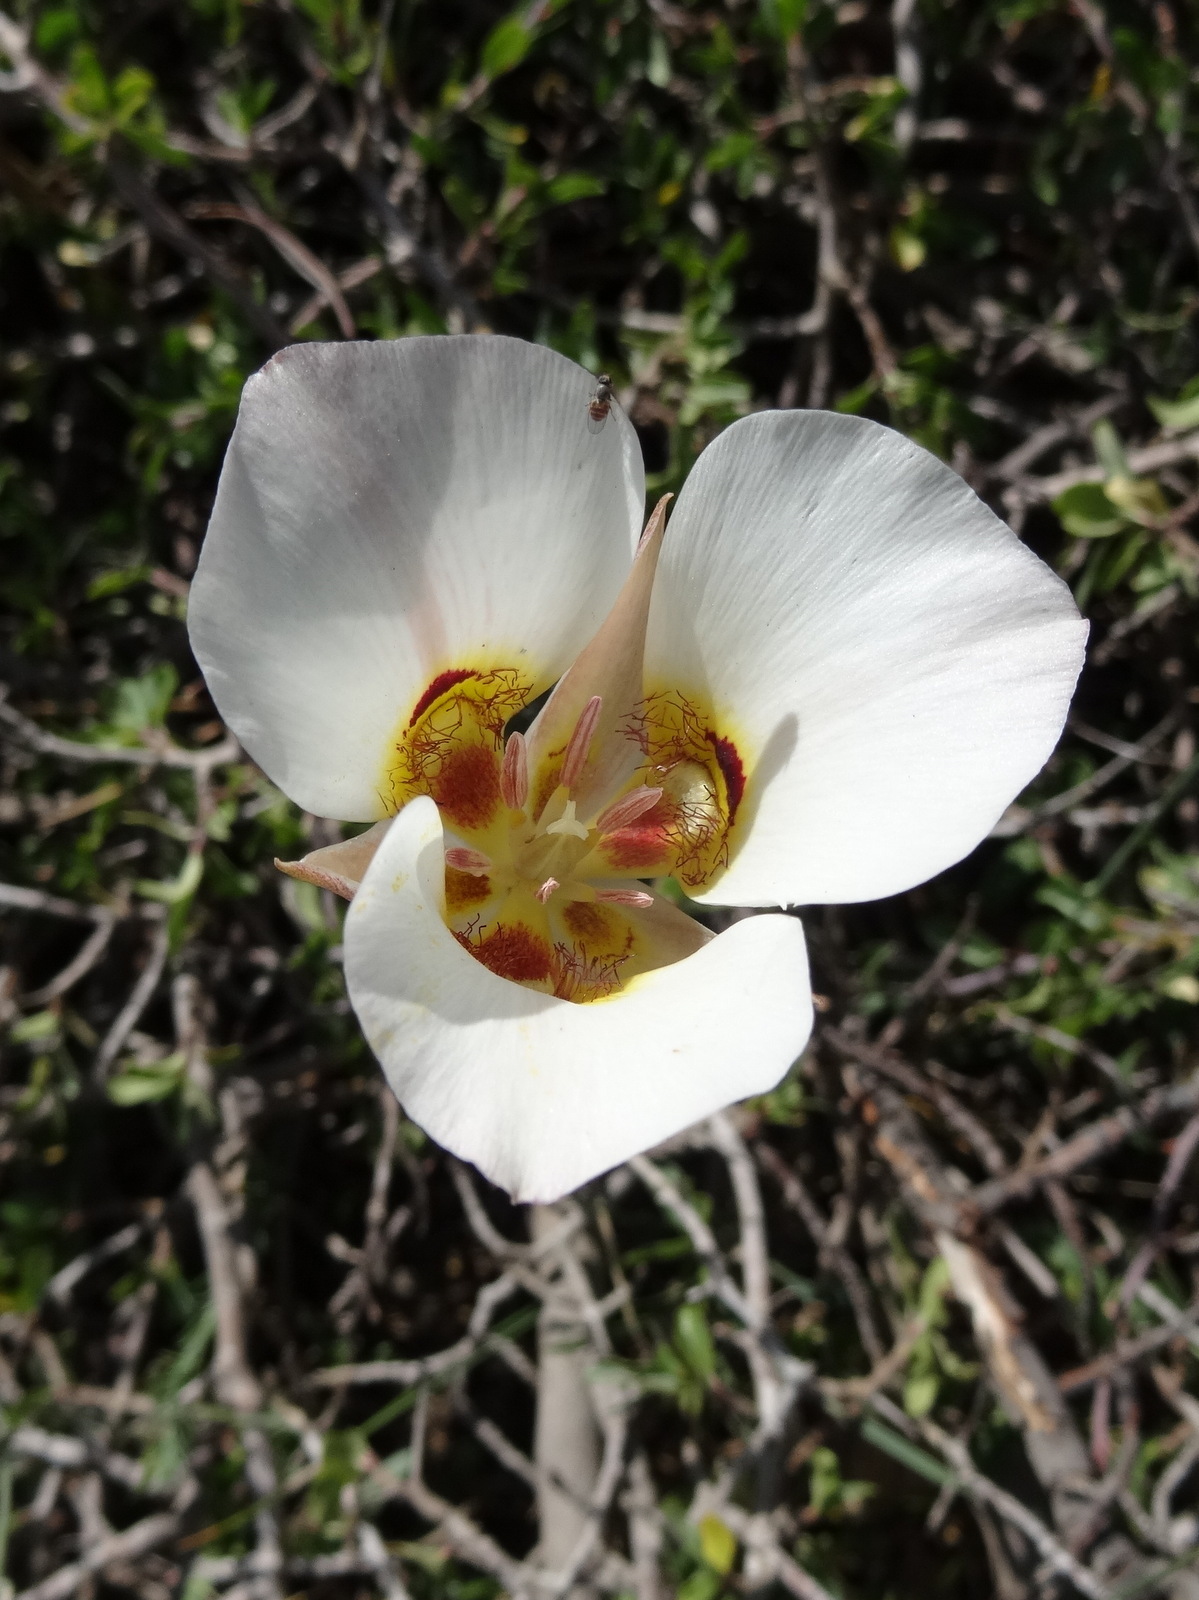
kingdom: Plantae
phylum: Tracheophyta
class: Liliopsida
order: Liliales
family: Liliaceae
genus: Calochortus
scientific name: Calochortus nuttallii
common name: Sego-lily
